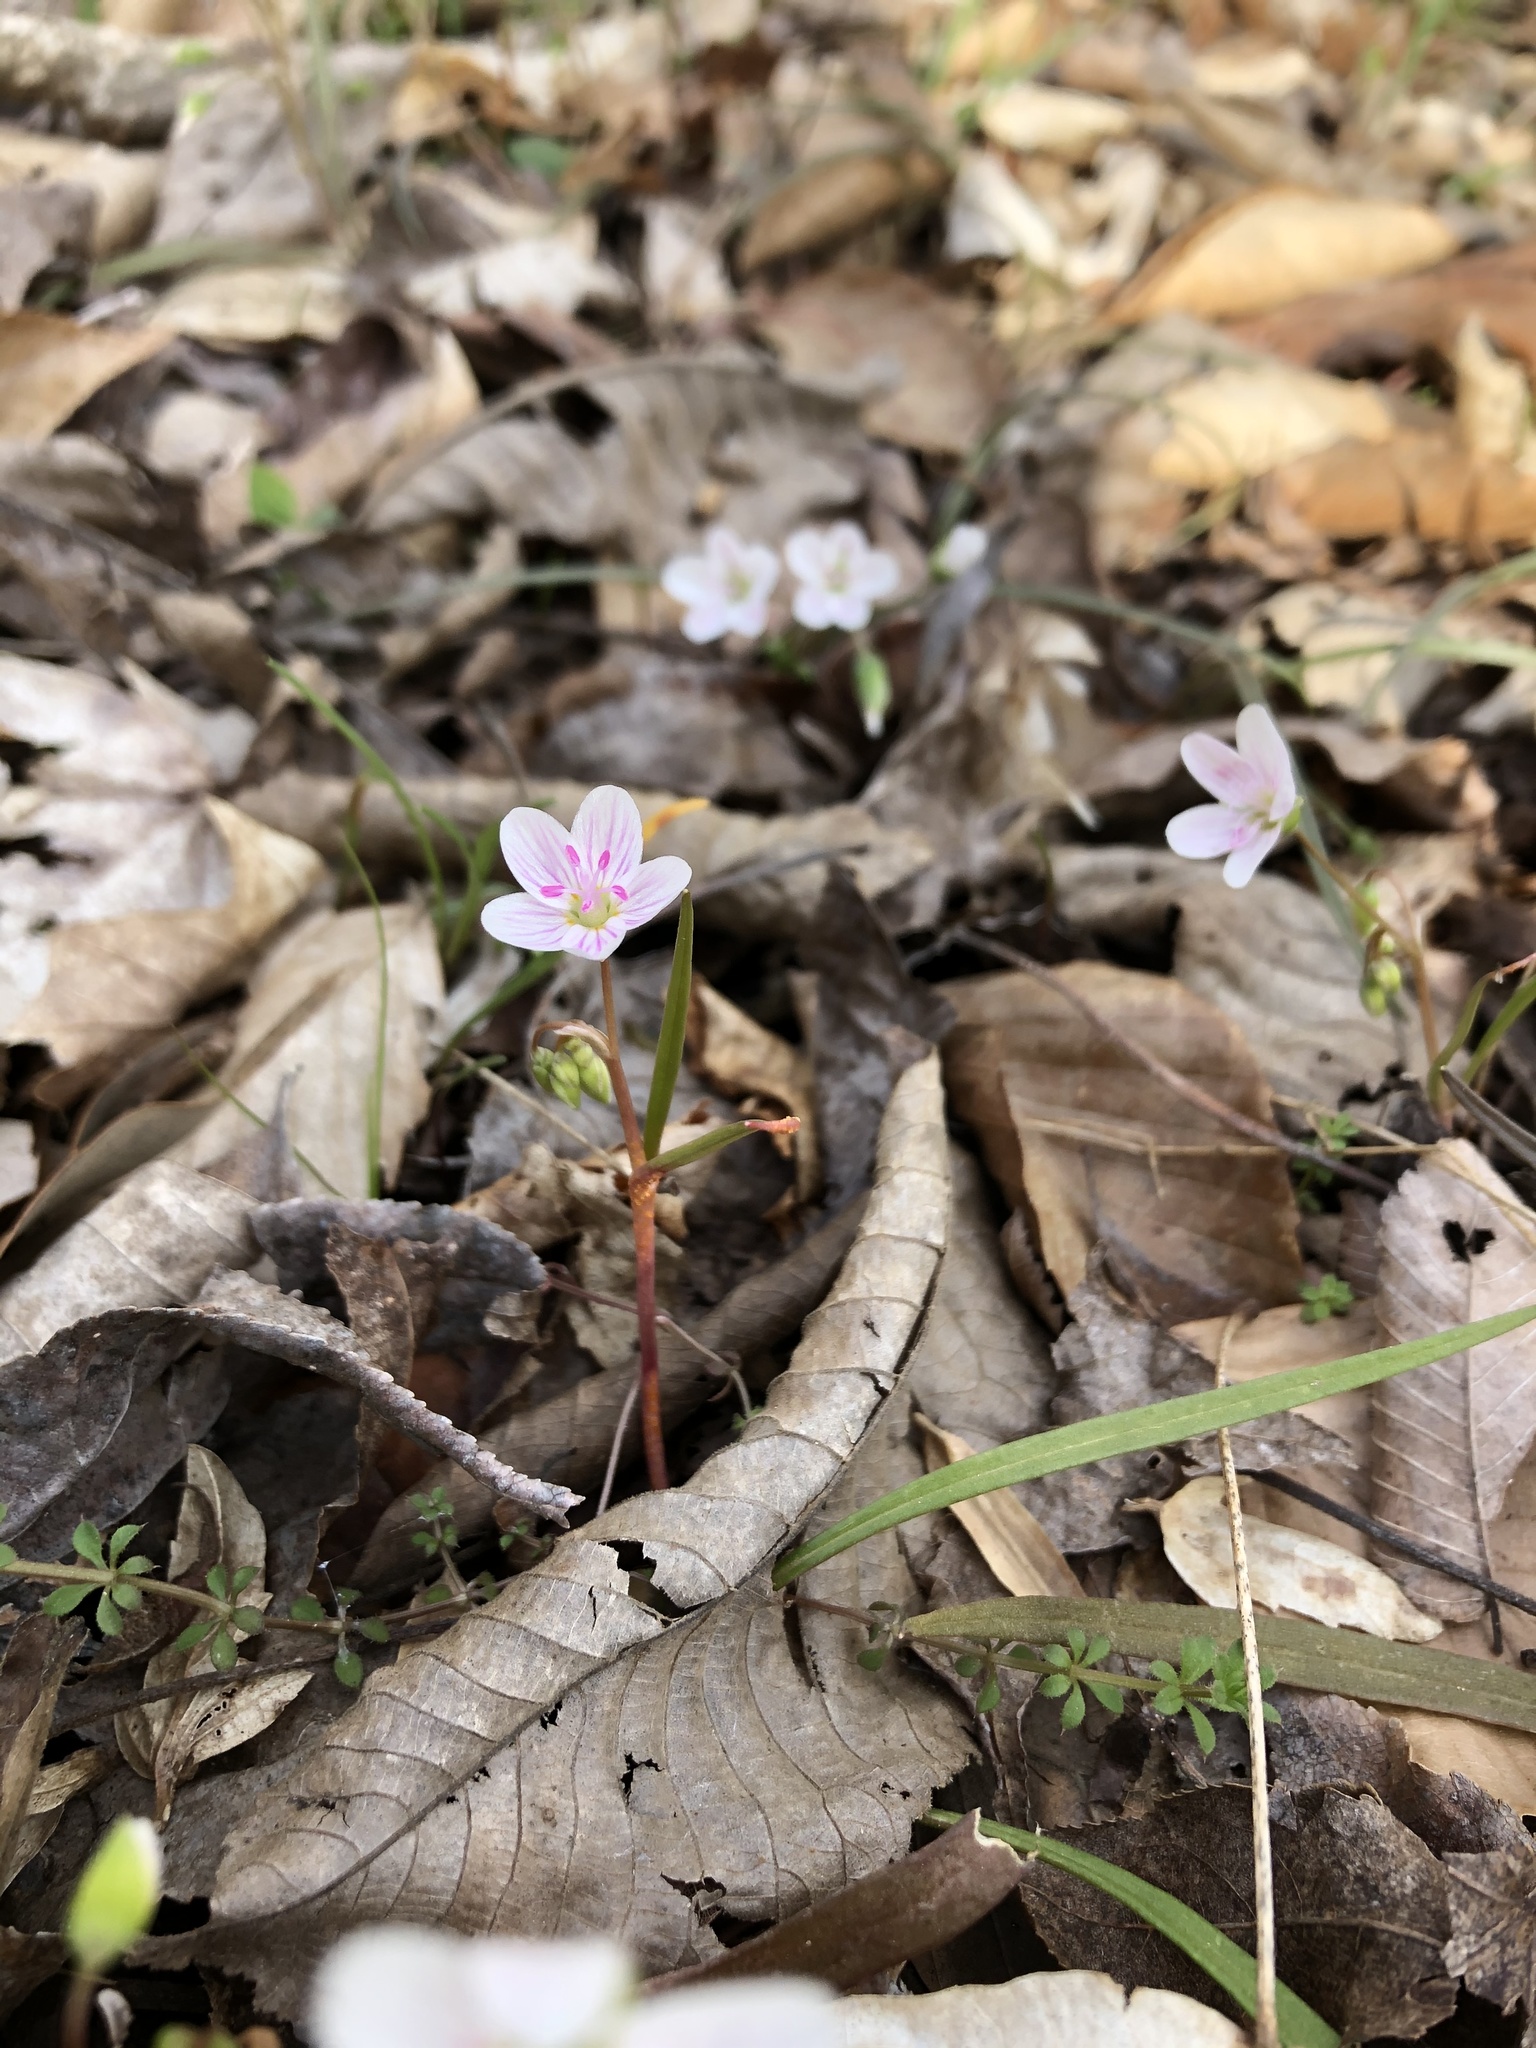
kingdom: Plantae
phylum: Tracheophyta
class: Magnoliopsida
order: Caryophyllales
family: Montiaceae
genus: Claytonia
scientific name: Claytonia virginica
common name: Virginia springbeauty
